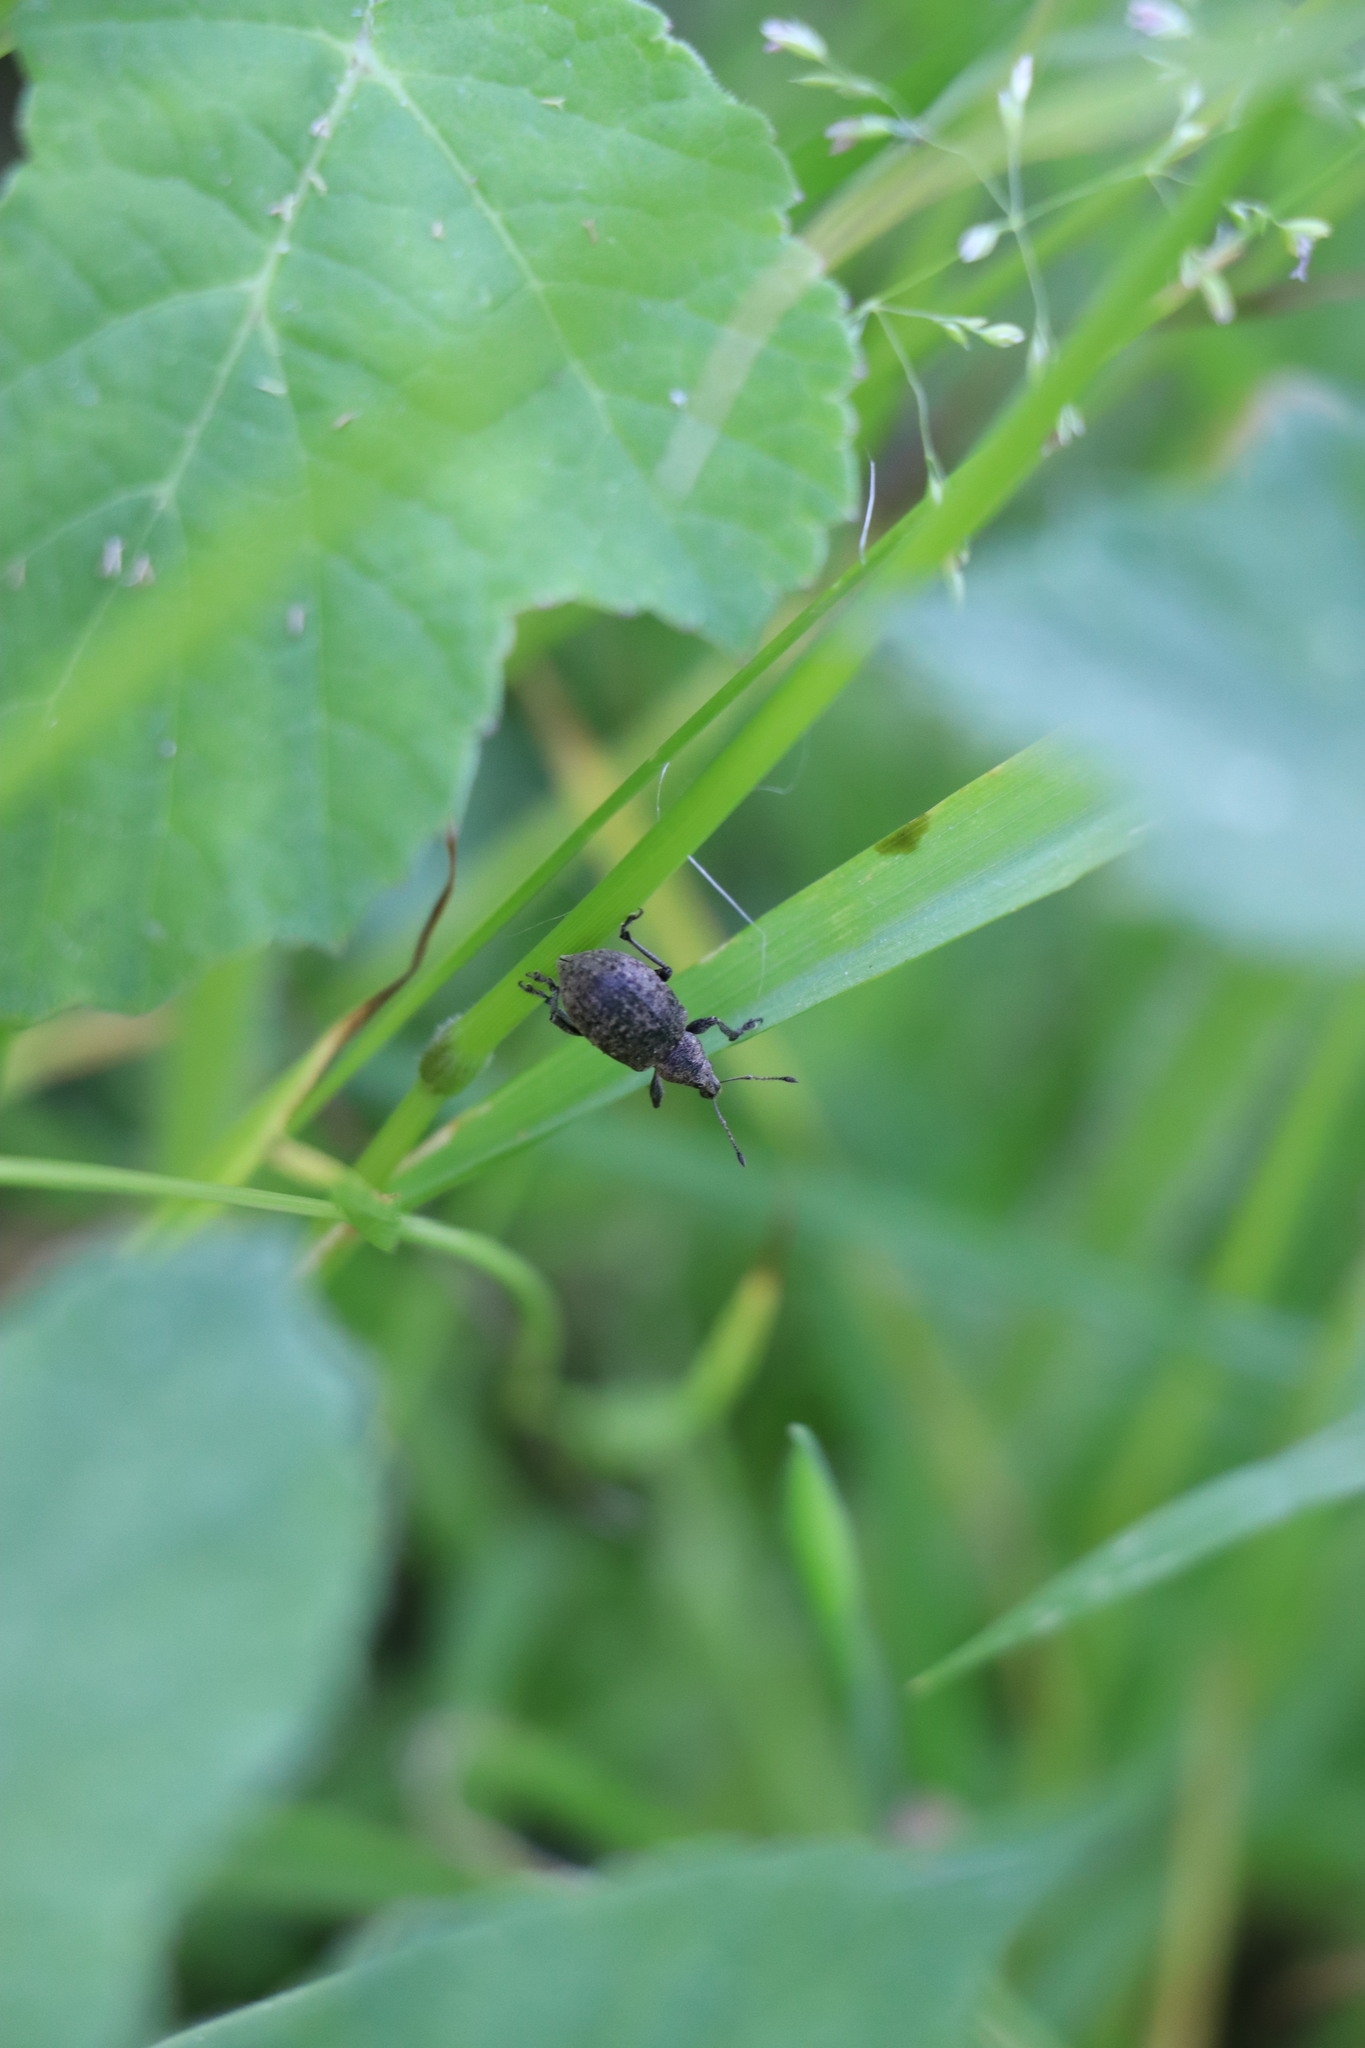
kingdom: Animalia
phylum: Arthropoda
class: Insecta
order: Coleoptera
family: Curculionidae
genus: Liophloeus
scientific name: Liophloeus tessulatus
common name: Weevil
